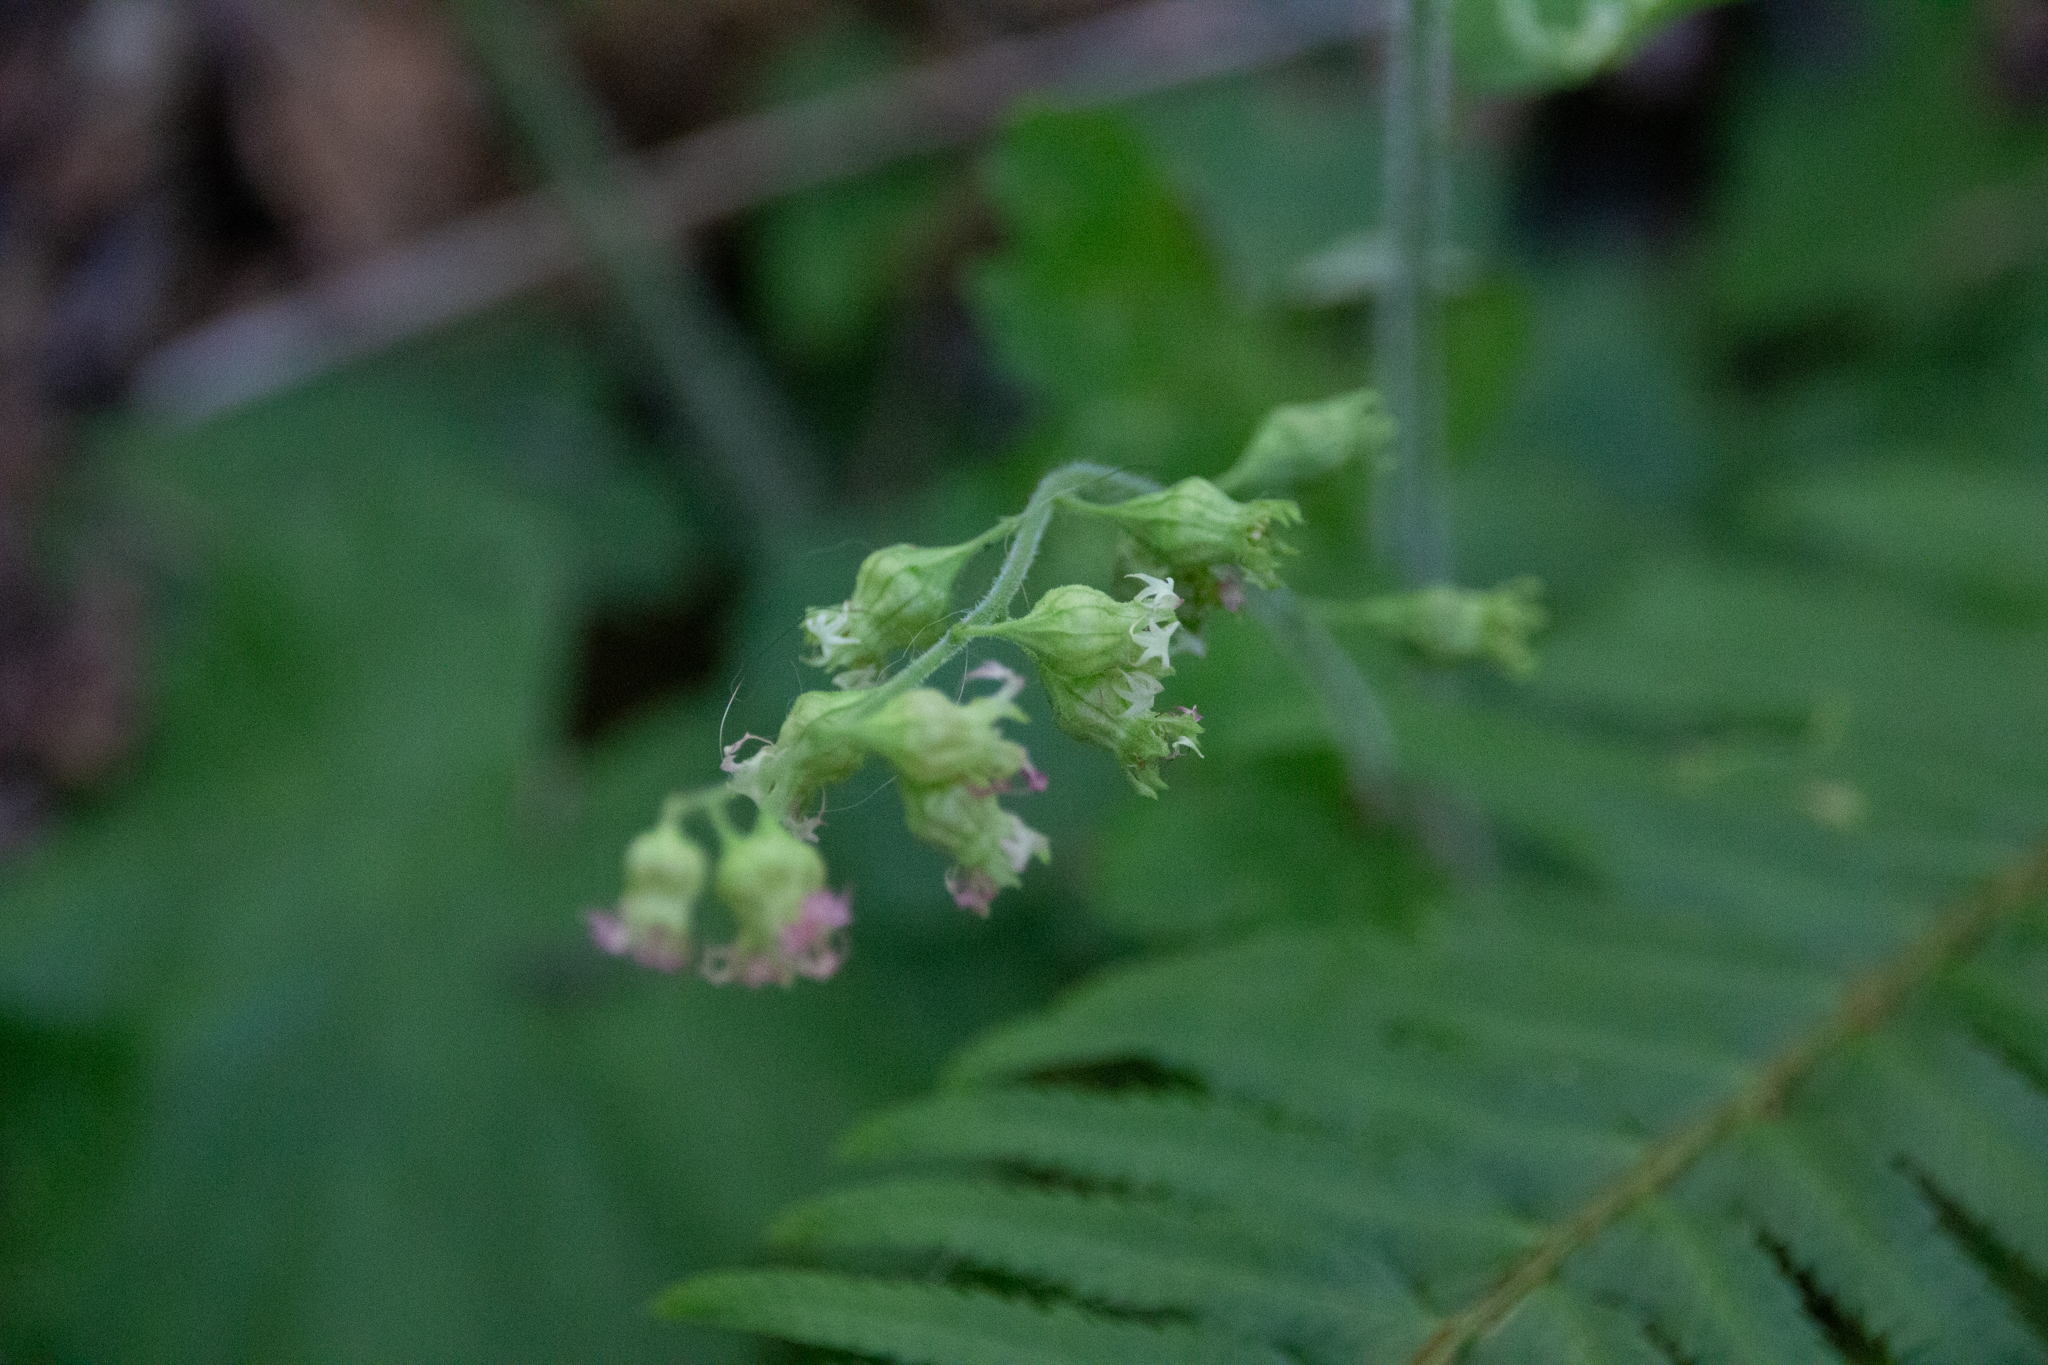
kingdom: Plantae
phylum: Tracheophyta
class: Polypodiopsida
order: Polypodiales
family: Dryopteridaceae
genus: Polystichum
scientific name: Polystichum munitum
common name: Western sword-fern
